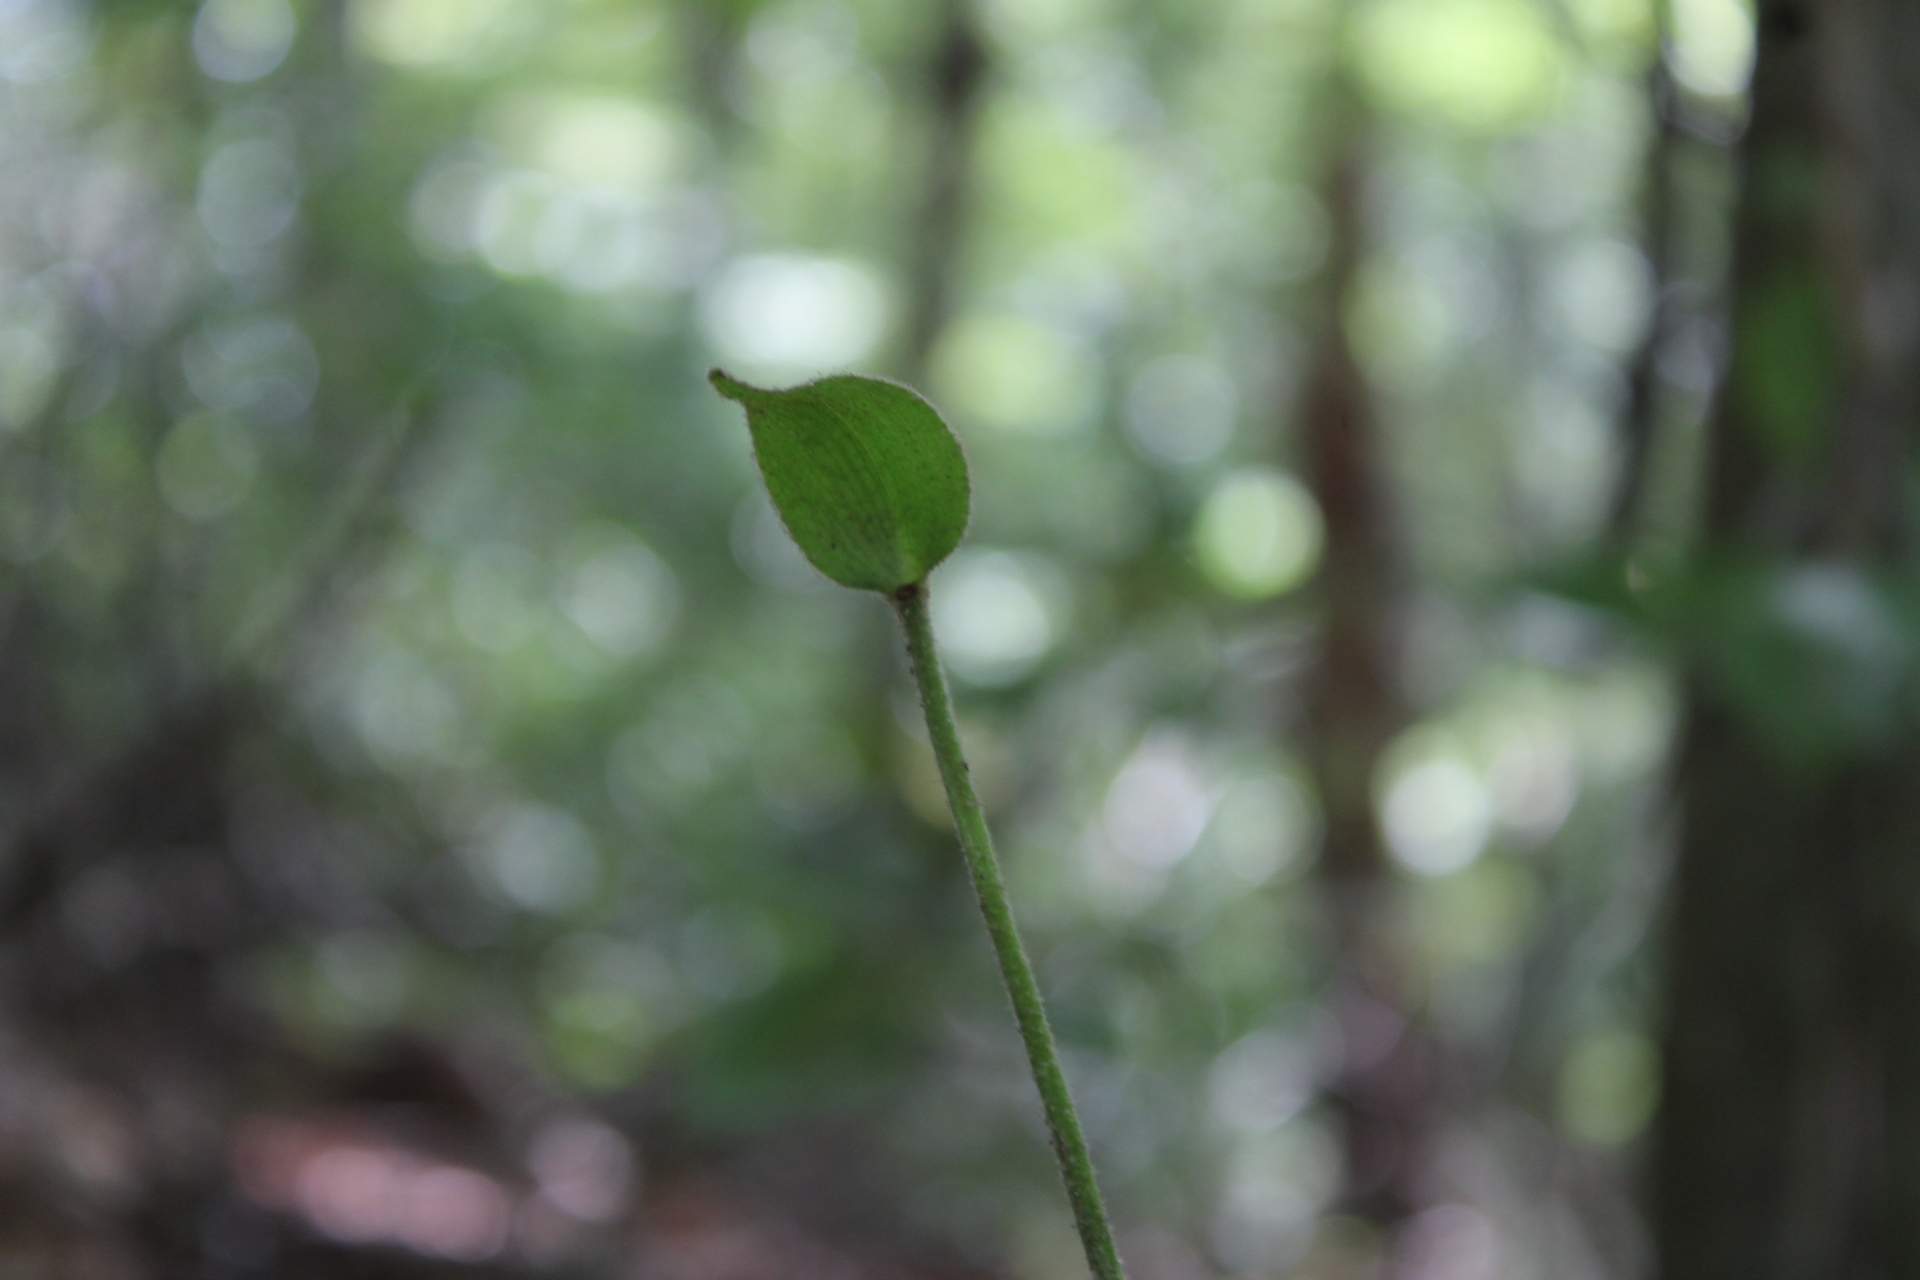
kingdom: Plantae
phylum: Tracheophyta
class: Liliopsida
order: Asparagales
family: Orchidaceae
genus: Cypripedium
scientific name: Cypripedium acaule
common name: Pink lady's-slipper
